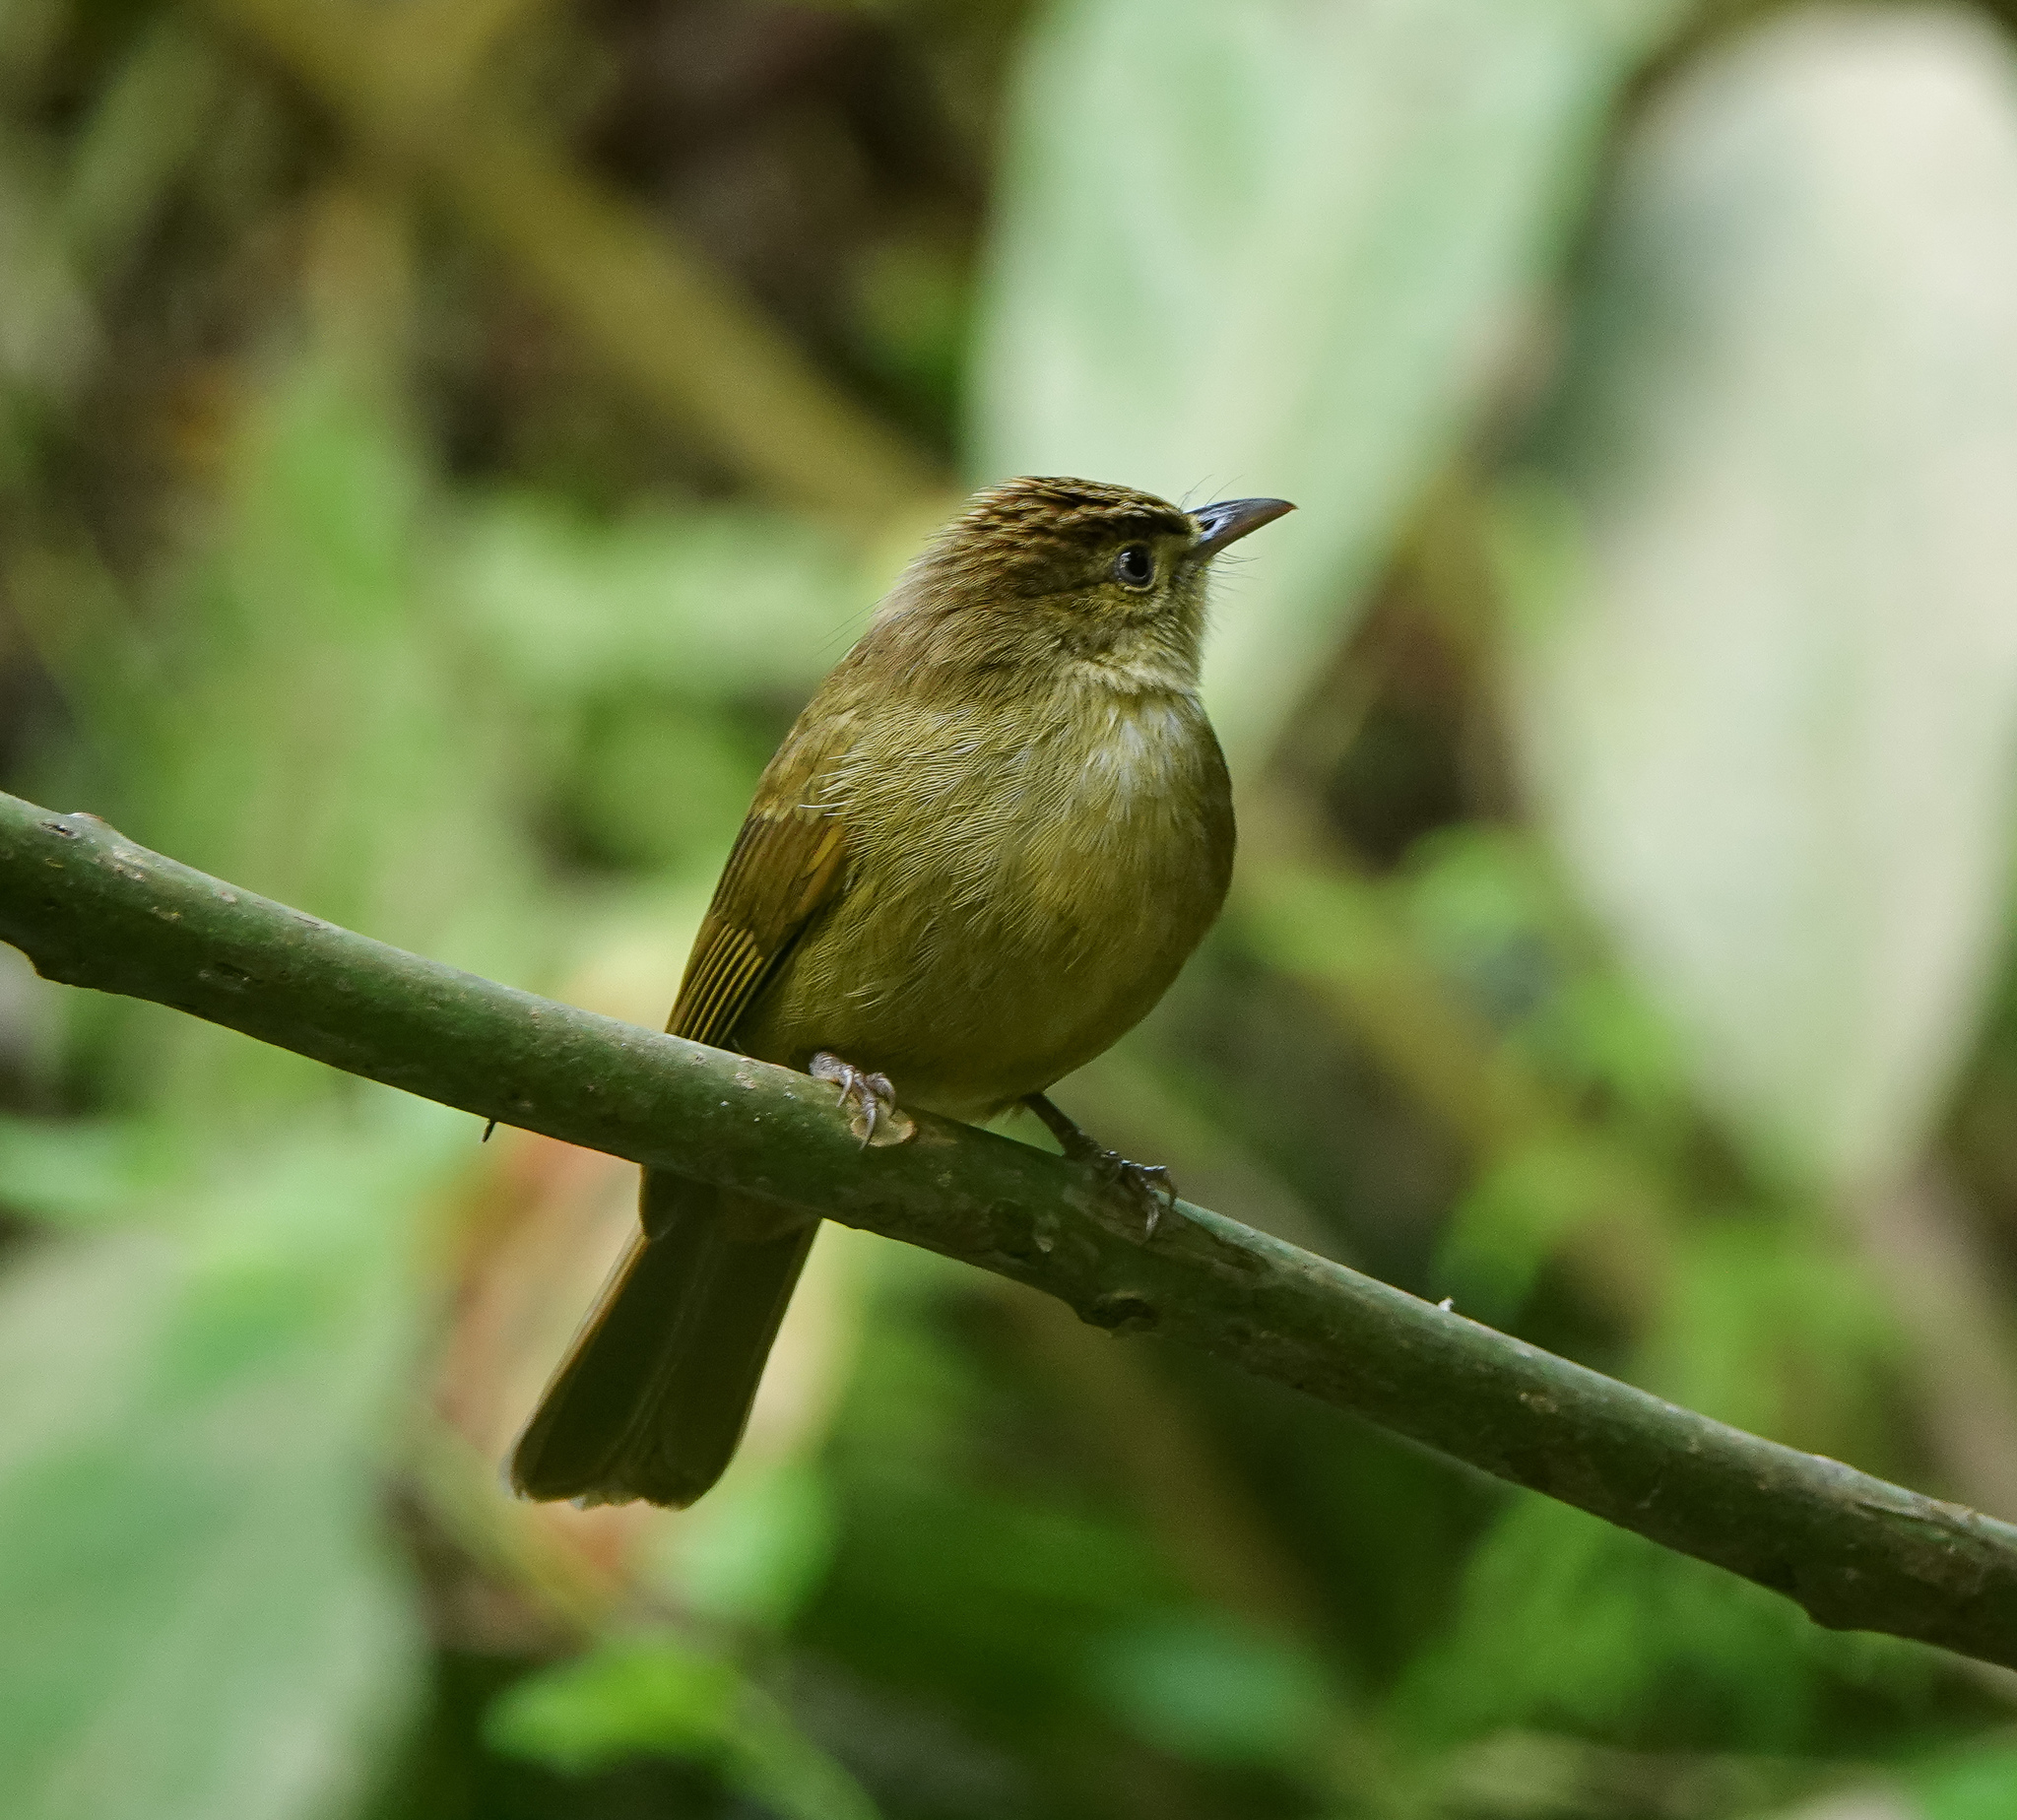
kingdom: Animalia
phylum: Chordata
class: Aves
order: Passeriformes
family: Pycnonotidae
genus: Iole
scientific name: Iole virescens
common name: Olive bulbul
